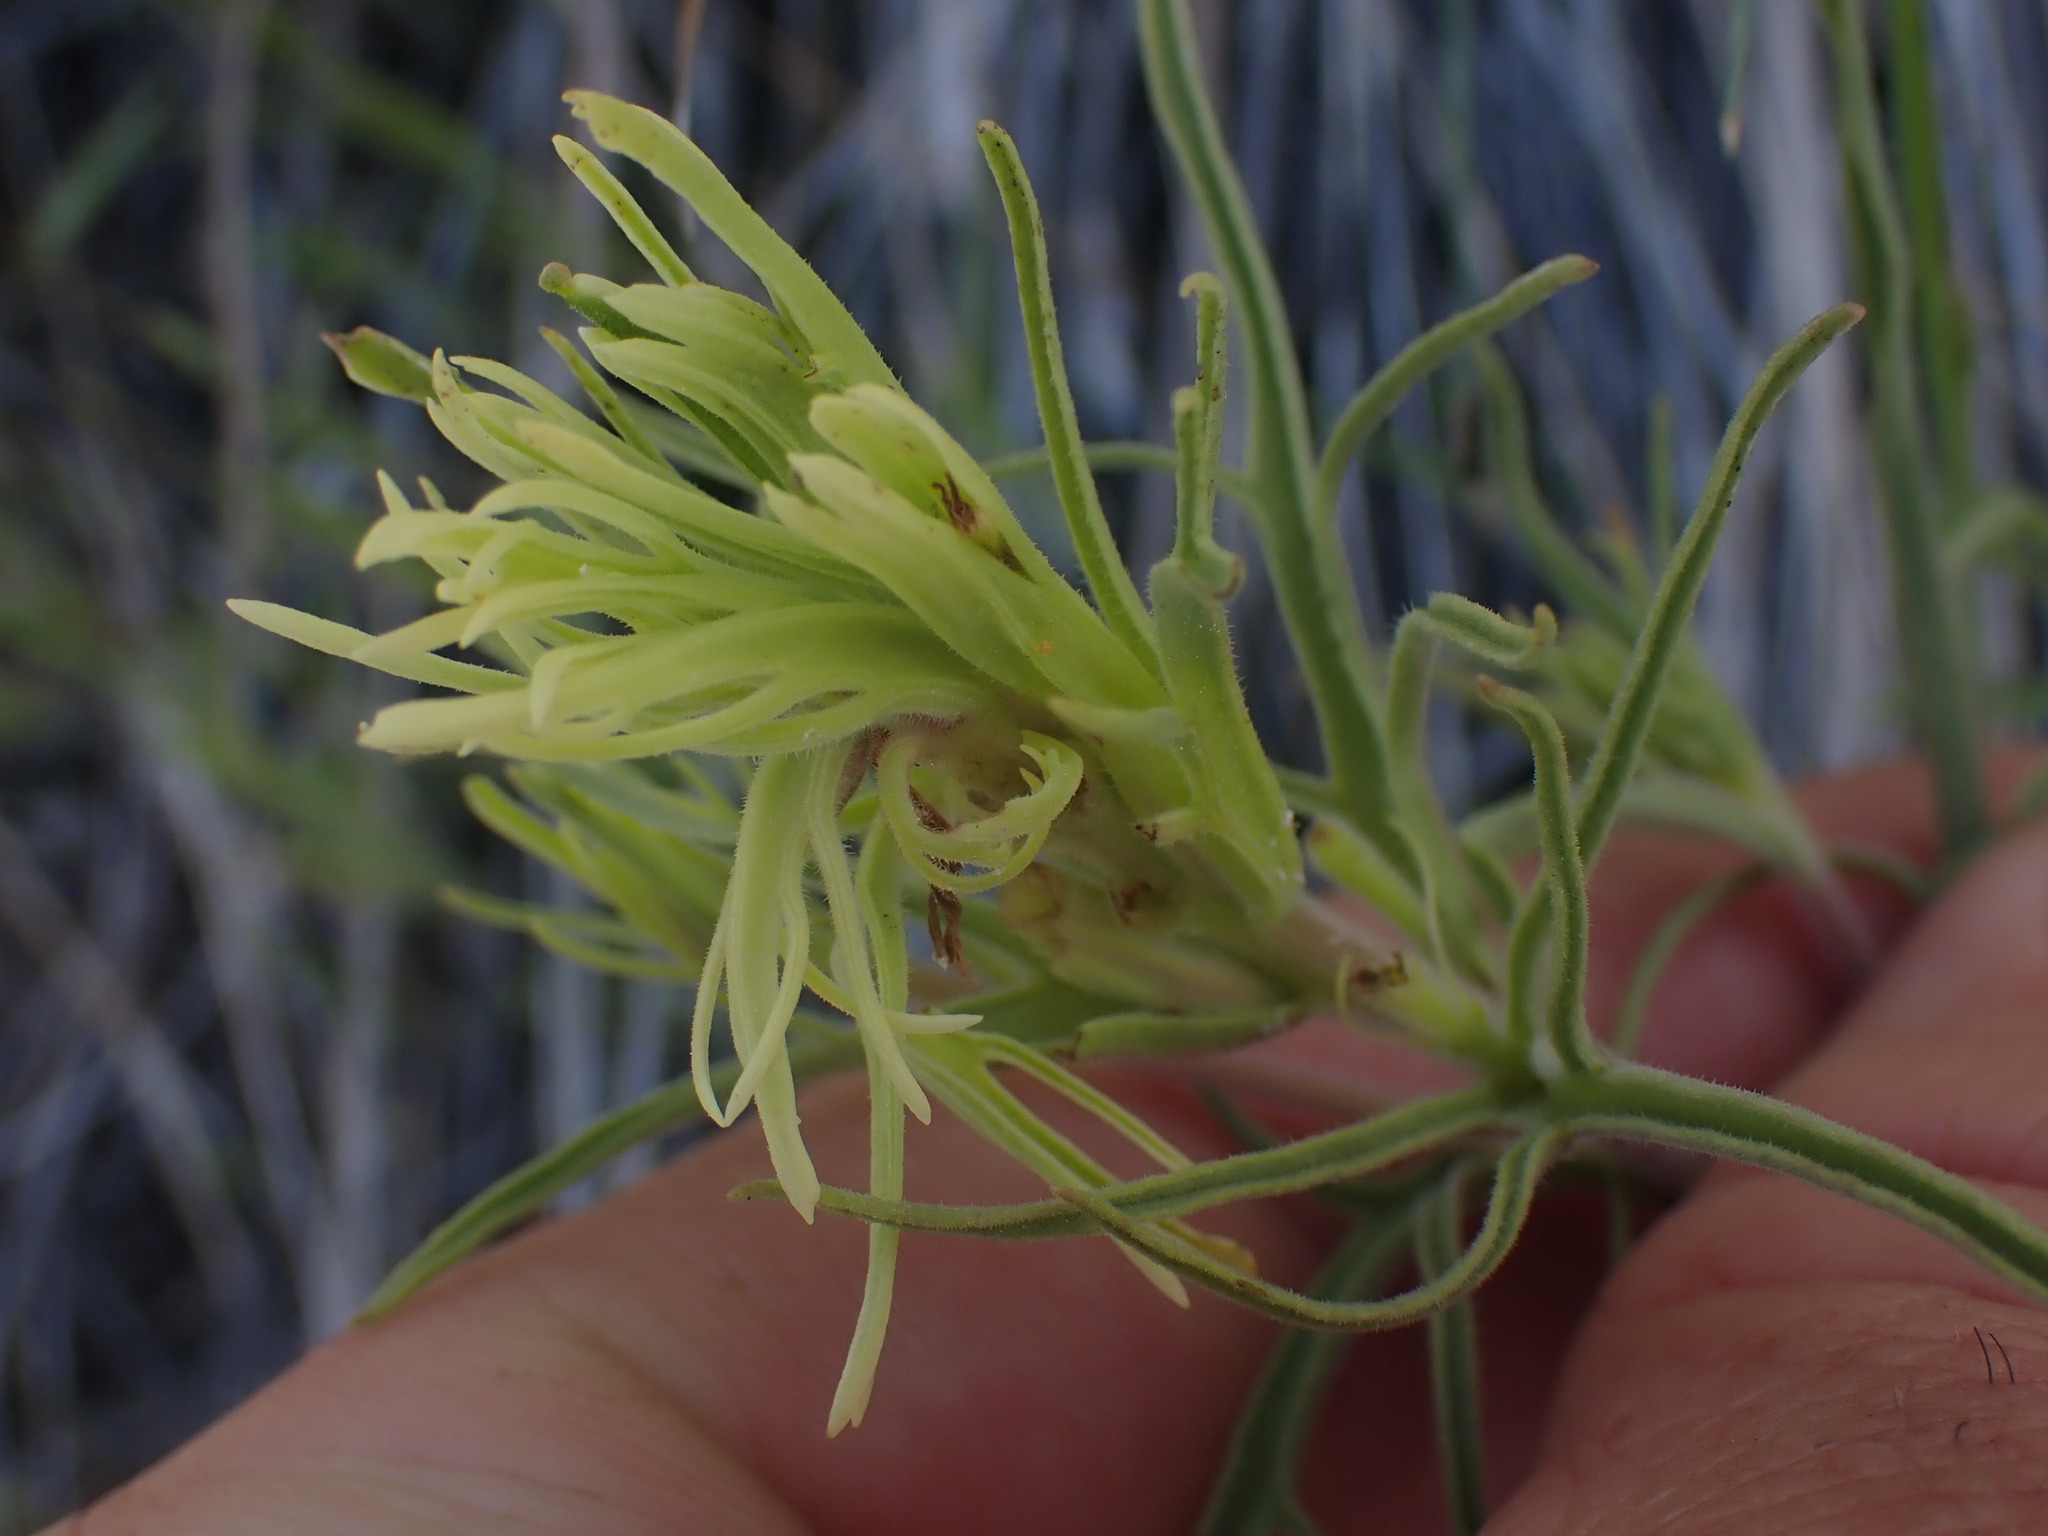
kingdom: Plantae
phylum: Tracheophyta
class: Magnoliopsida
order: Lamiales
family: Orobanchaceae
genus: Castilleja
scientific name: Castilleja thompsonii
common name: Thompson's paintbrush
